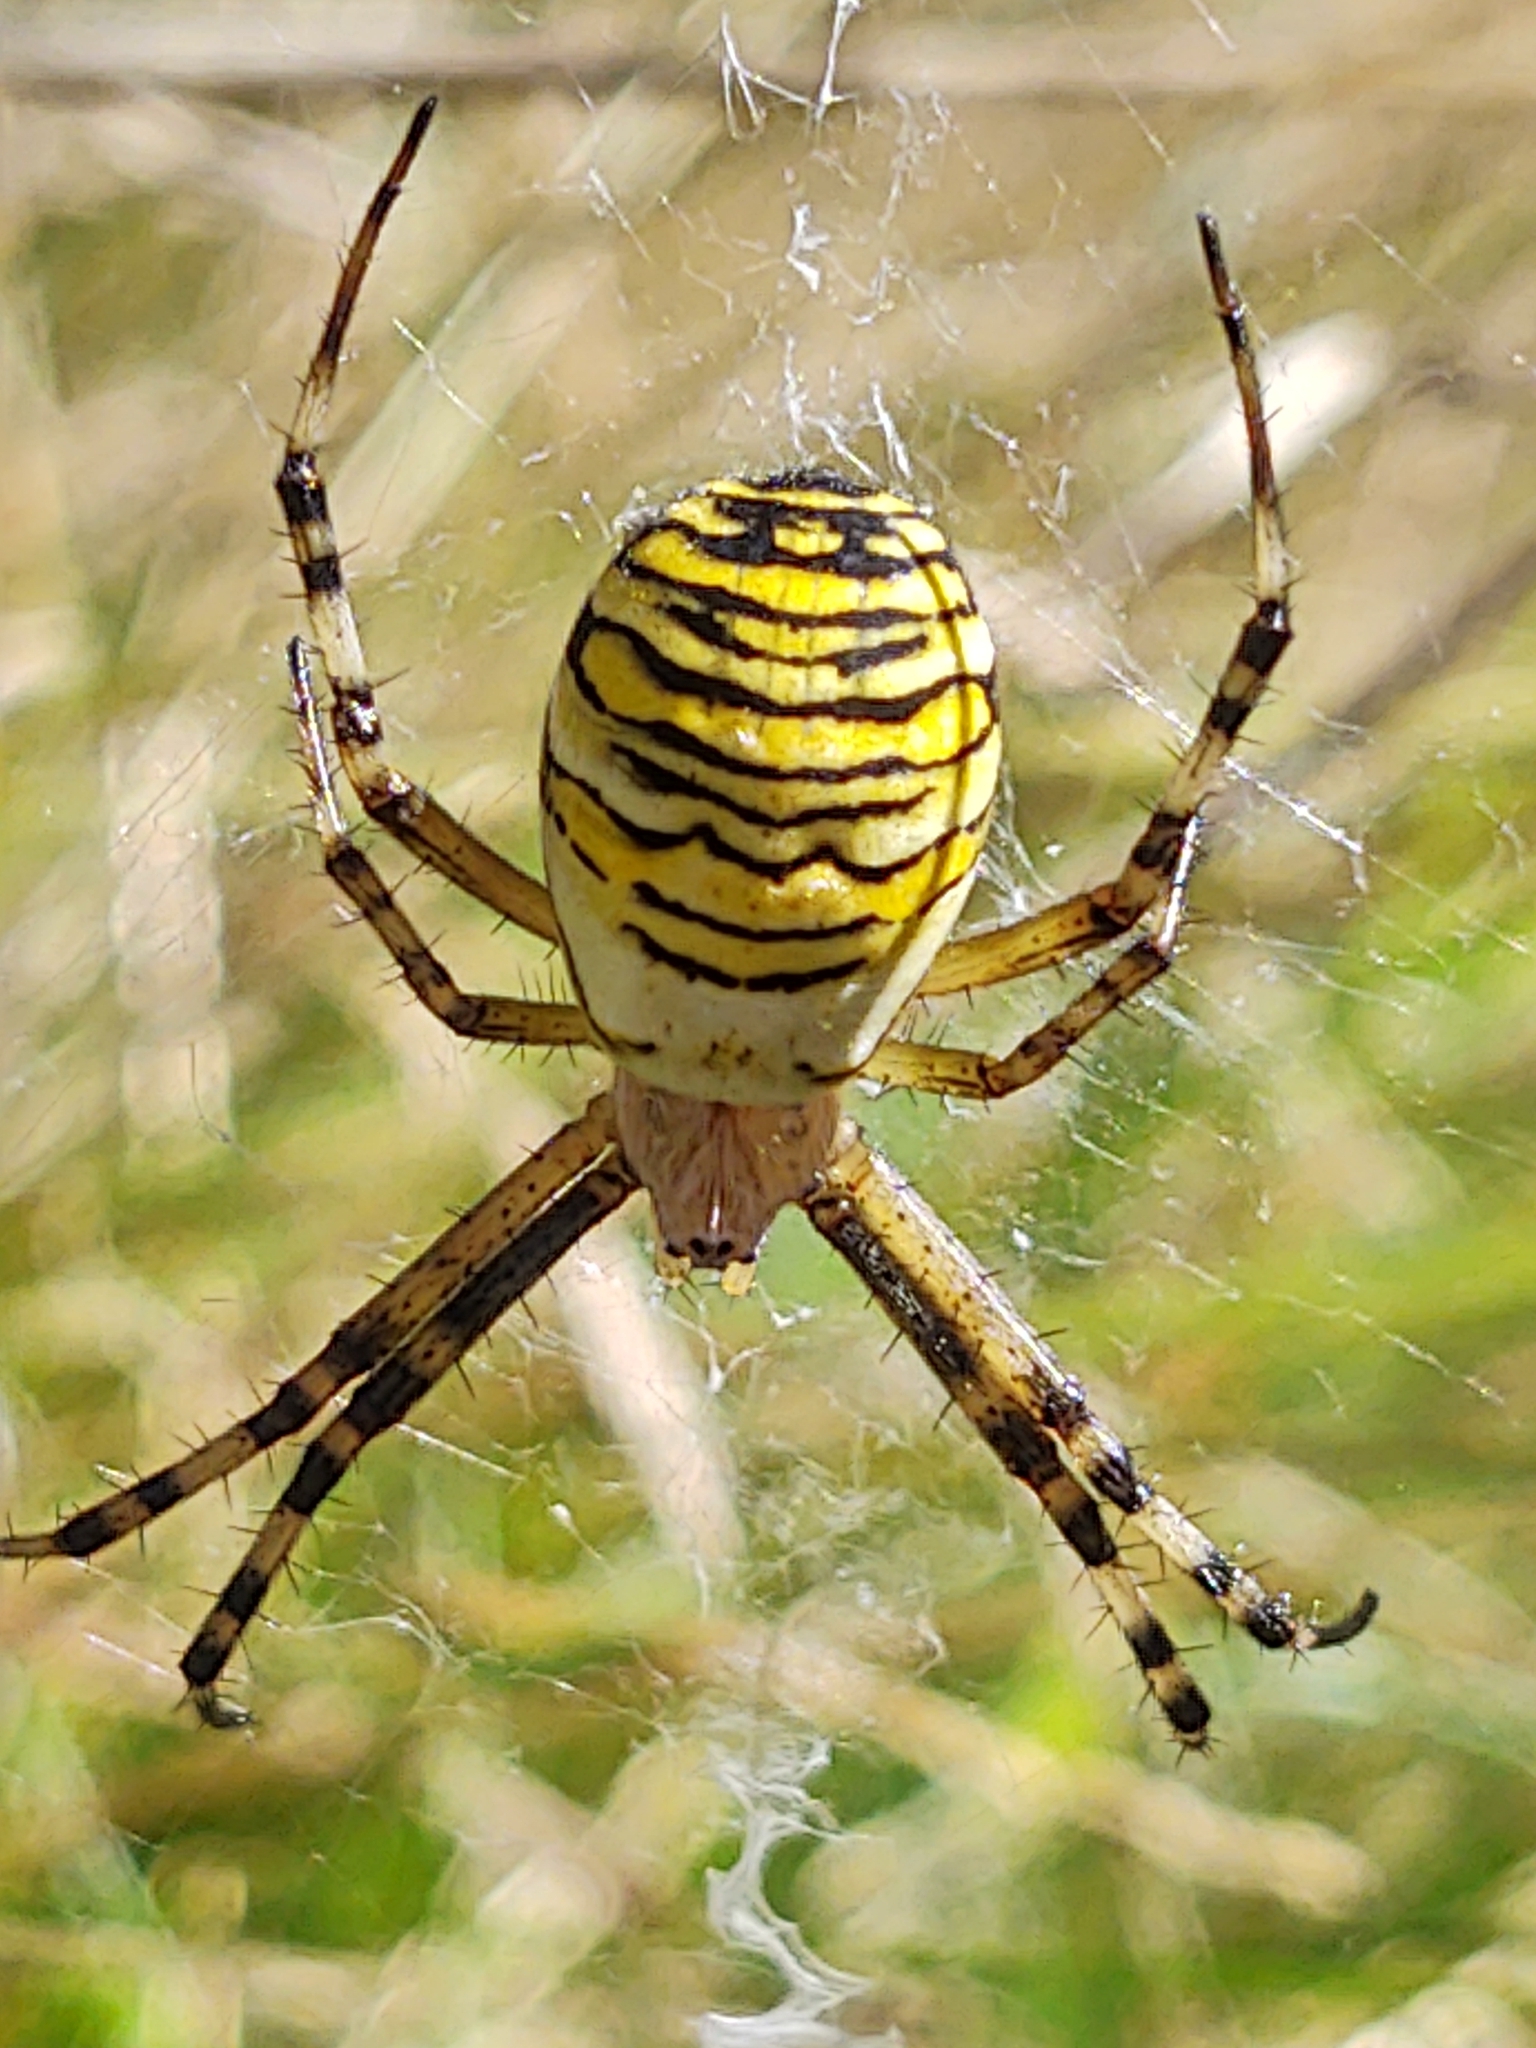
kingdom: Animalia
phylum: Arthropoda
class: Arachnida
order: Araneae
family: Araneidae
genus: Argiope
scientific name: Argiope bruennichi
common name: Wasp spider
